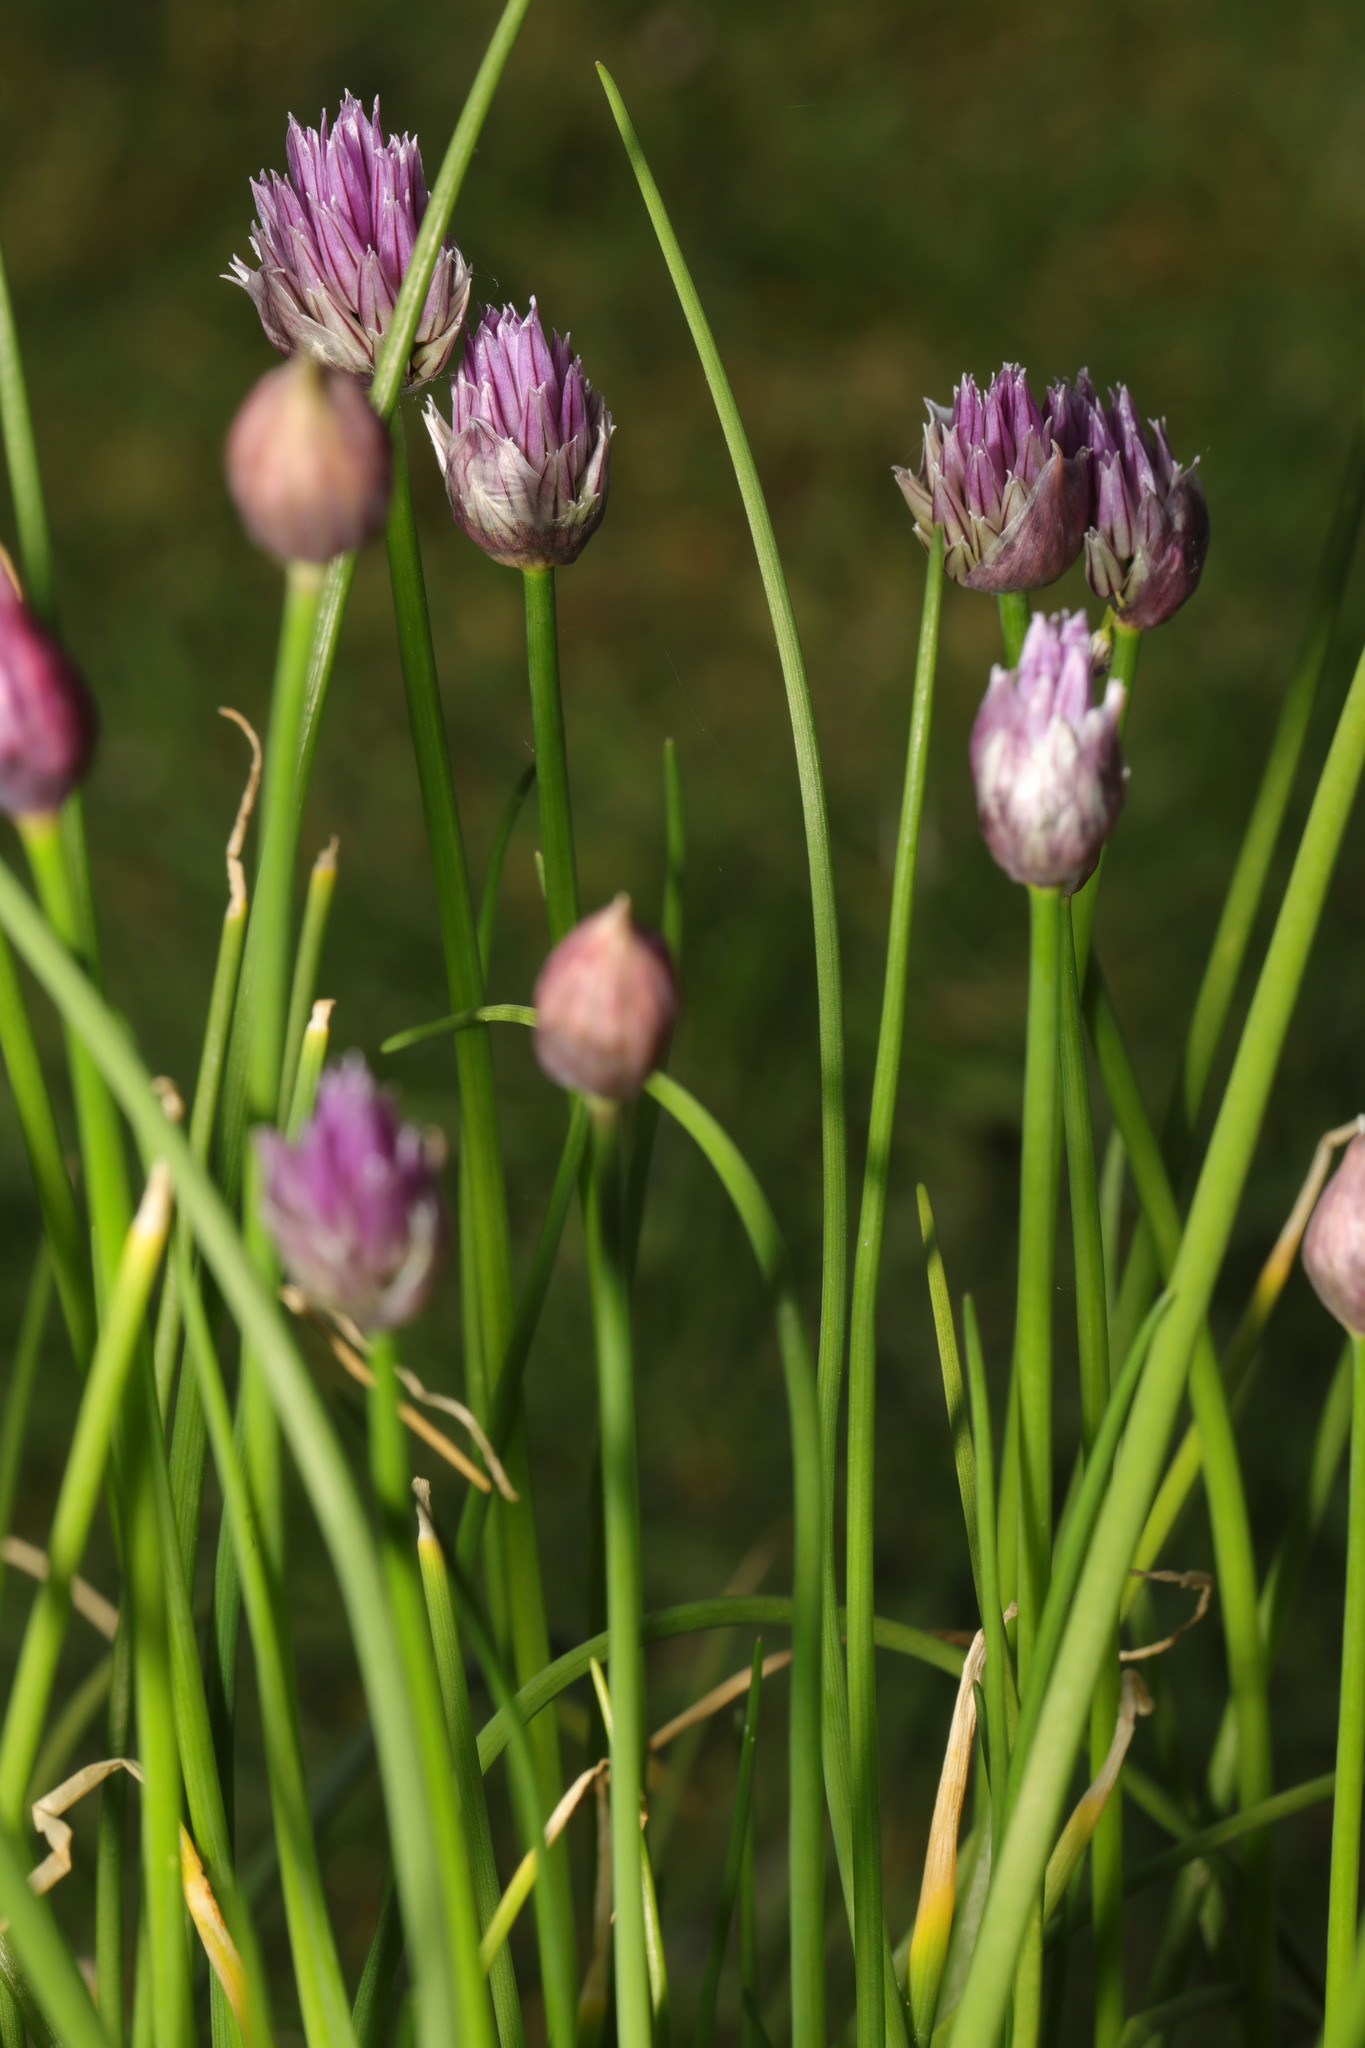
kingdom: Plantae
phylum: Tracheophyta
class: Liliopsida
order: Asparagales
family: Amaryllidaceae
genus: Allium
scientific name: Allium schoenoprasum
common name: Chives
